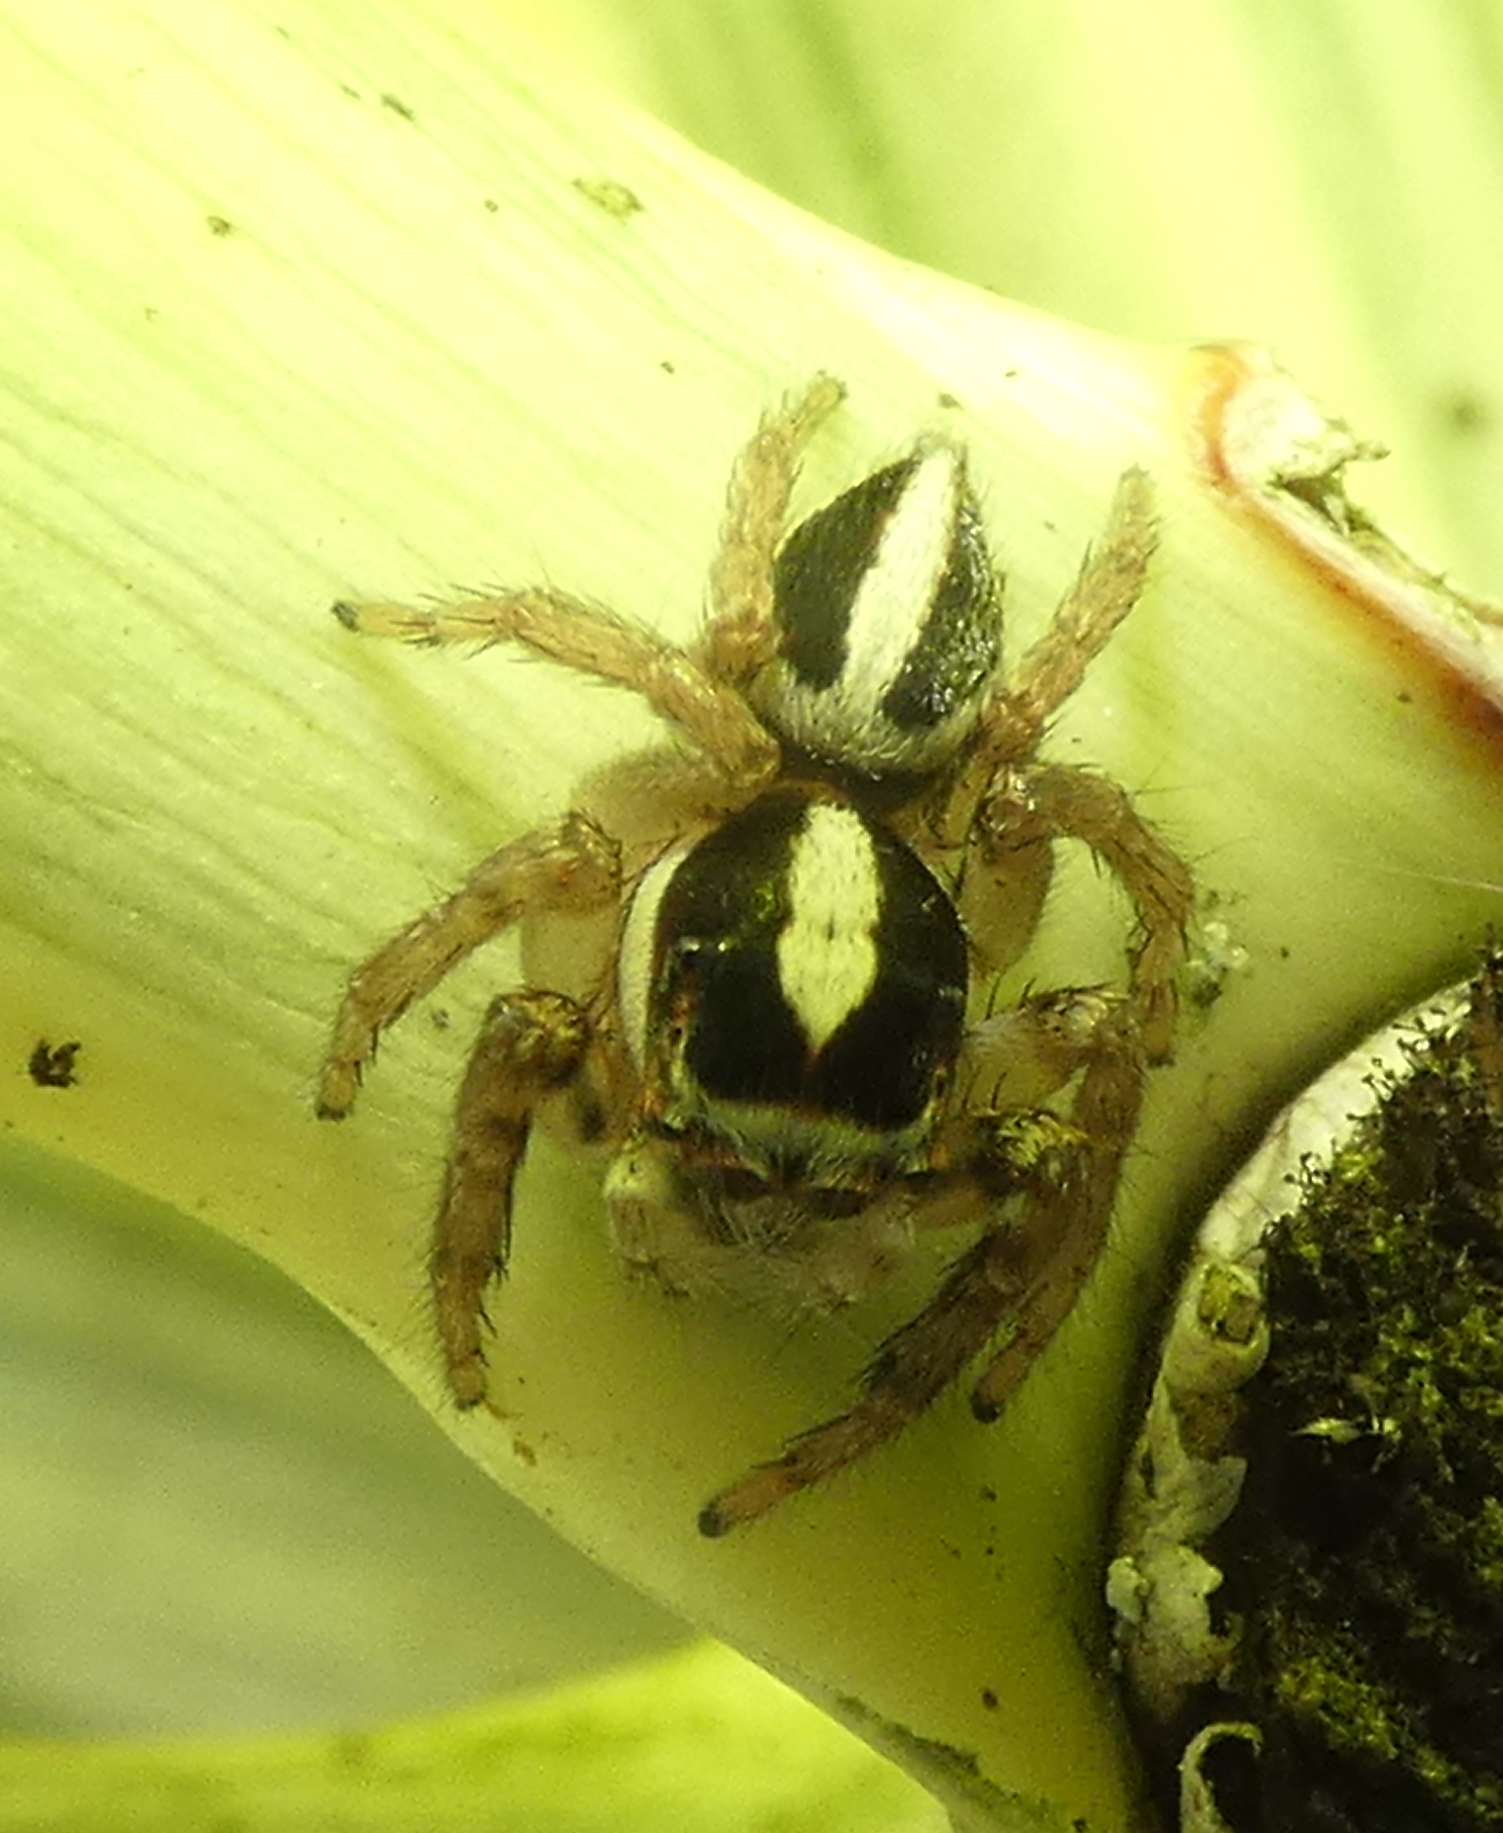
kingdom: Animalia
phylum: Arthropoda
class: Arachnida
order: Araneae
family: Salticidae
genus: Leptofreya
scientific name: Leptofreya ambigua
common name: Jumping spider
